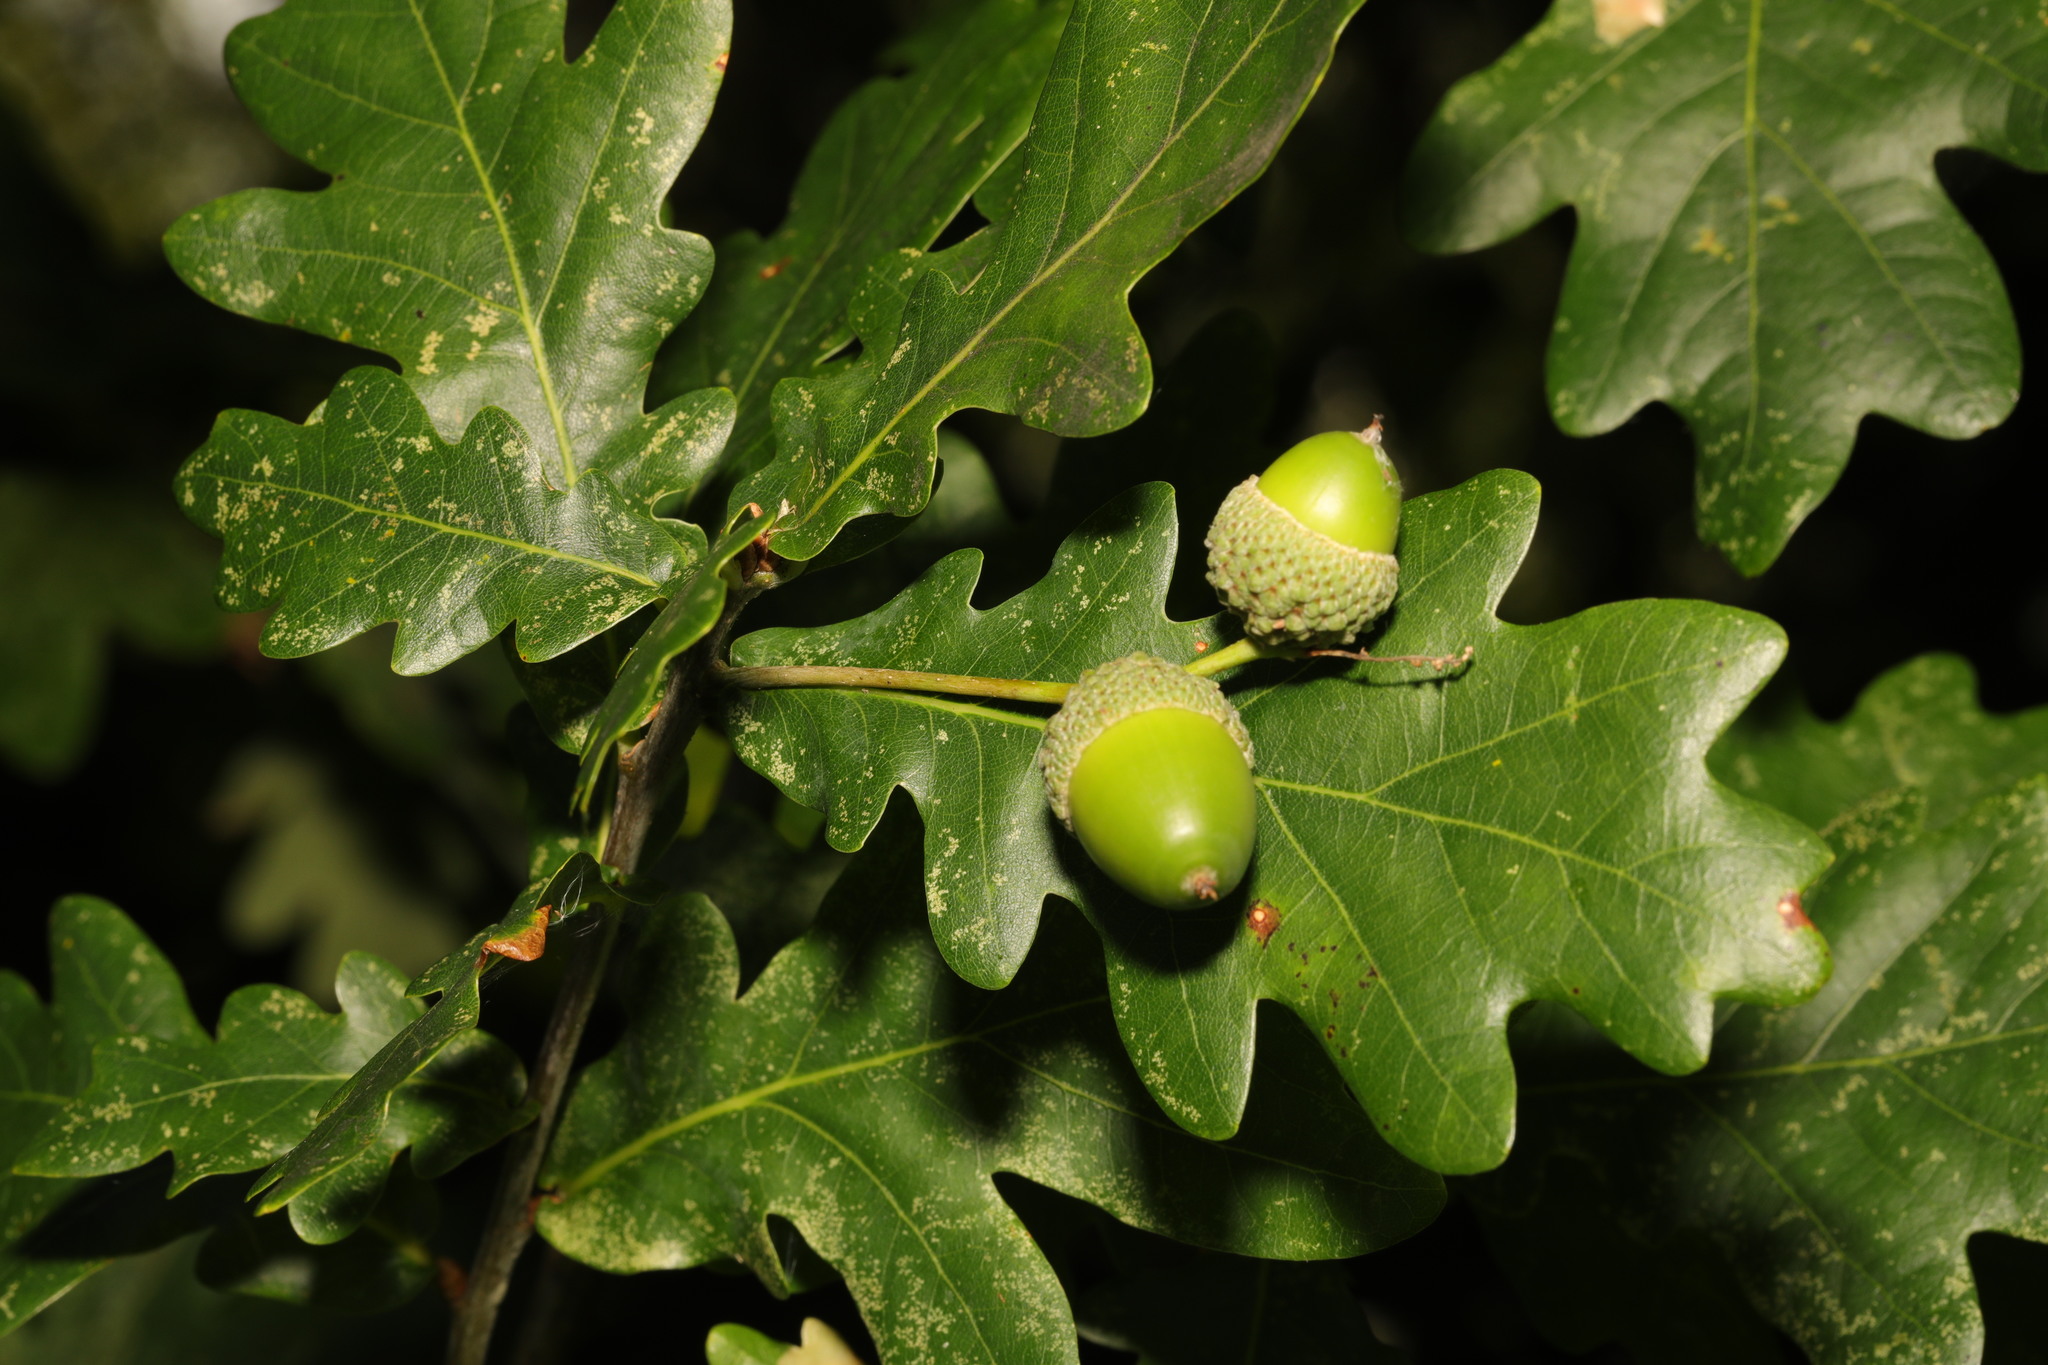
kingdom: Plantae
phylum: Tracheophyta
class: Magnoliopsida
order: Fagales
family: Fagaceae
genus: Quercus
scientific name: Quercus robur
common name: Pedunculate oak
